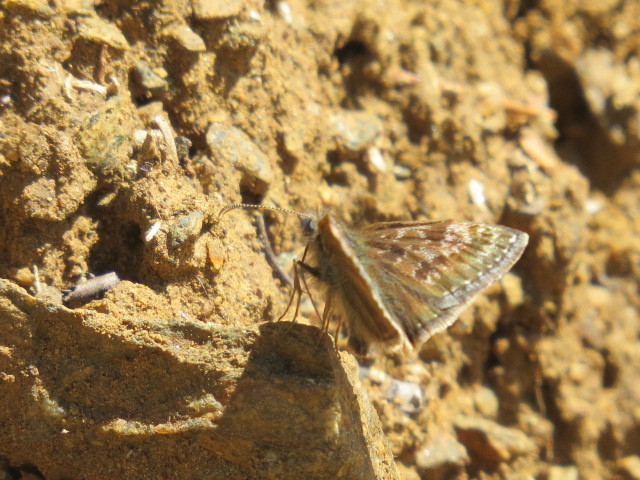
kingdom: Animalia
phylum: Arthropoda
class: Insecta
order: Lepidoptera
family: Hesperiidae
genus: Erynnis
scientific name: Erynnis tages
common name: Dingy skipper
